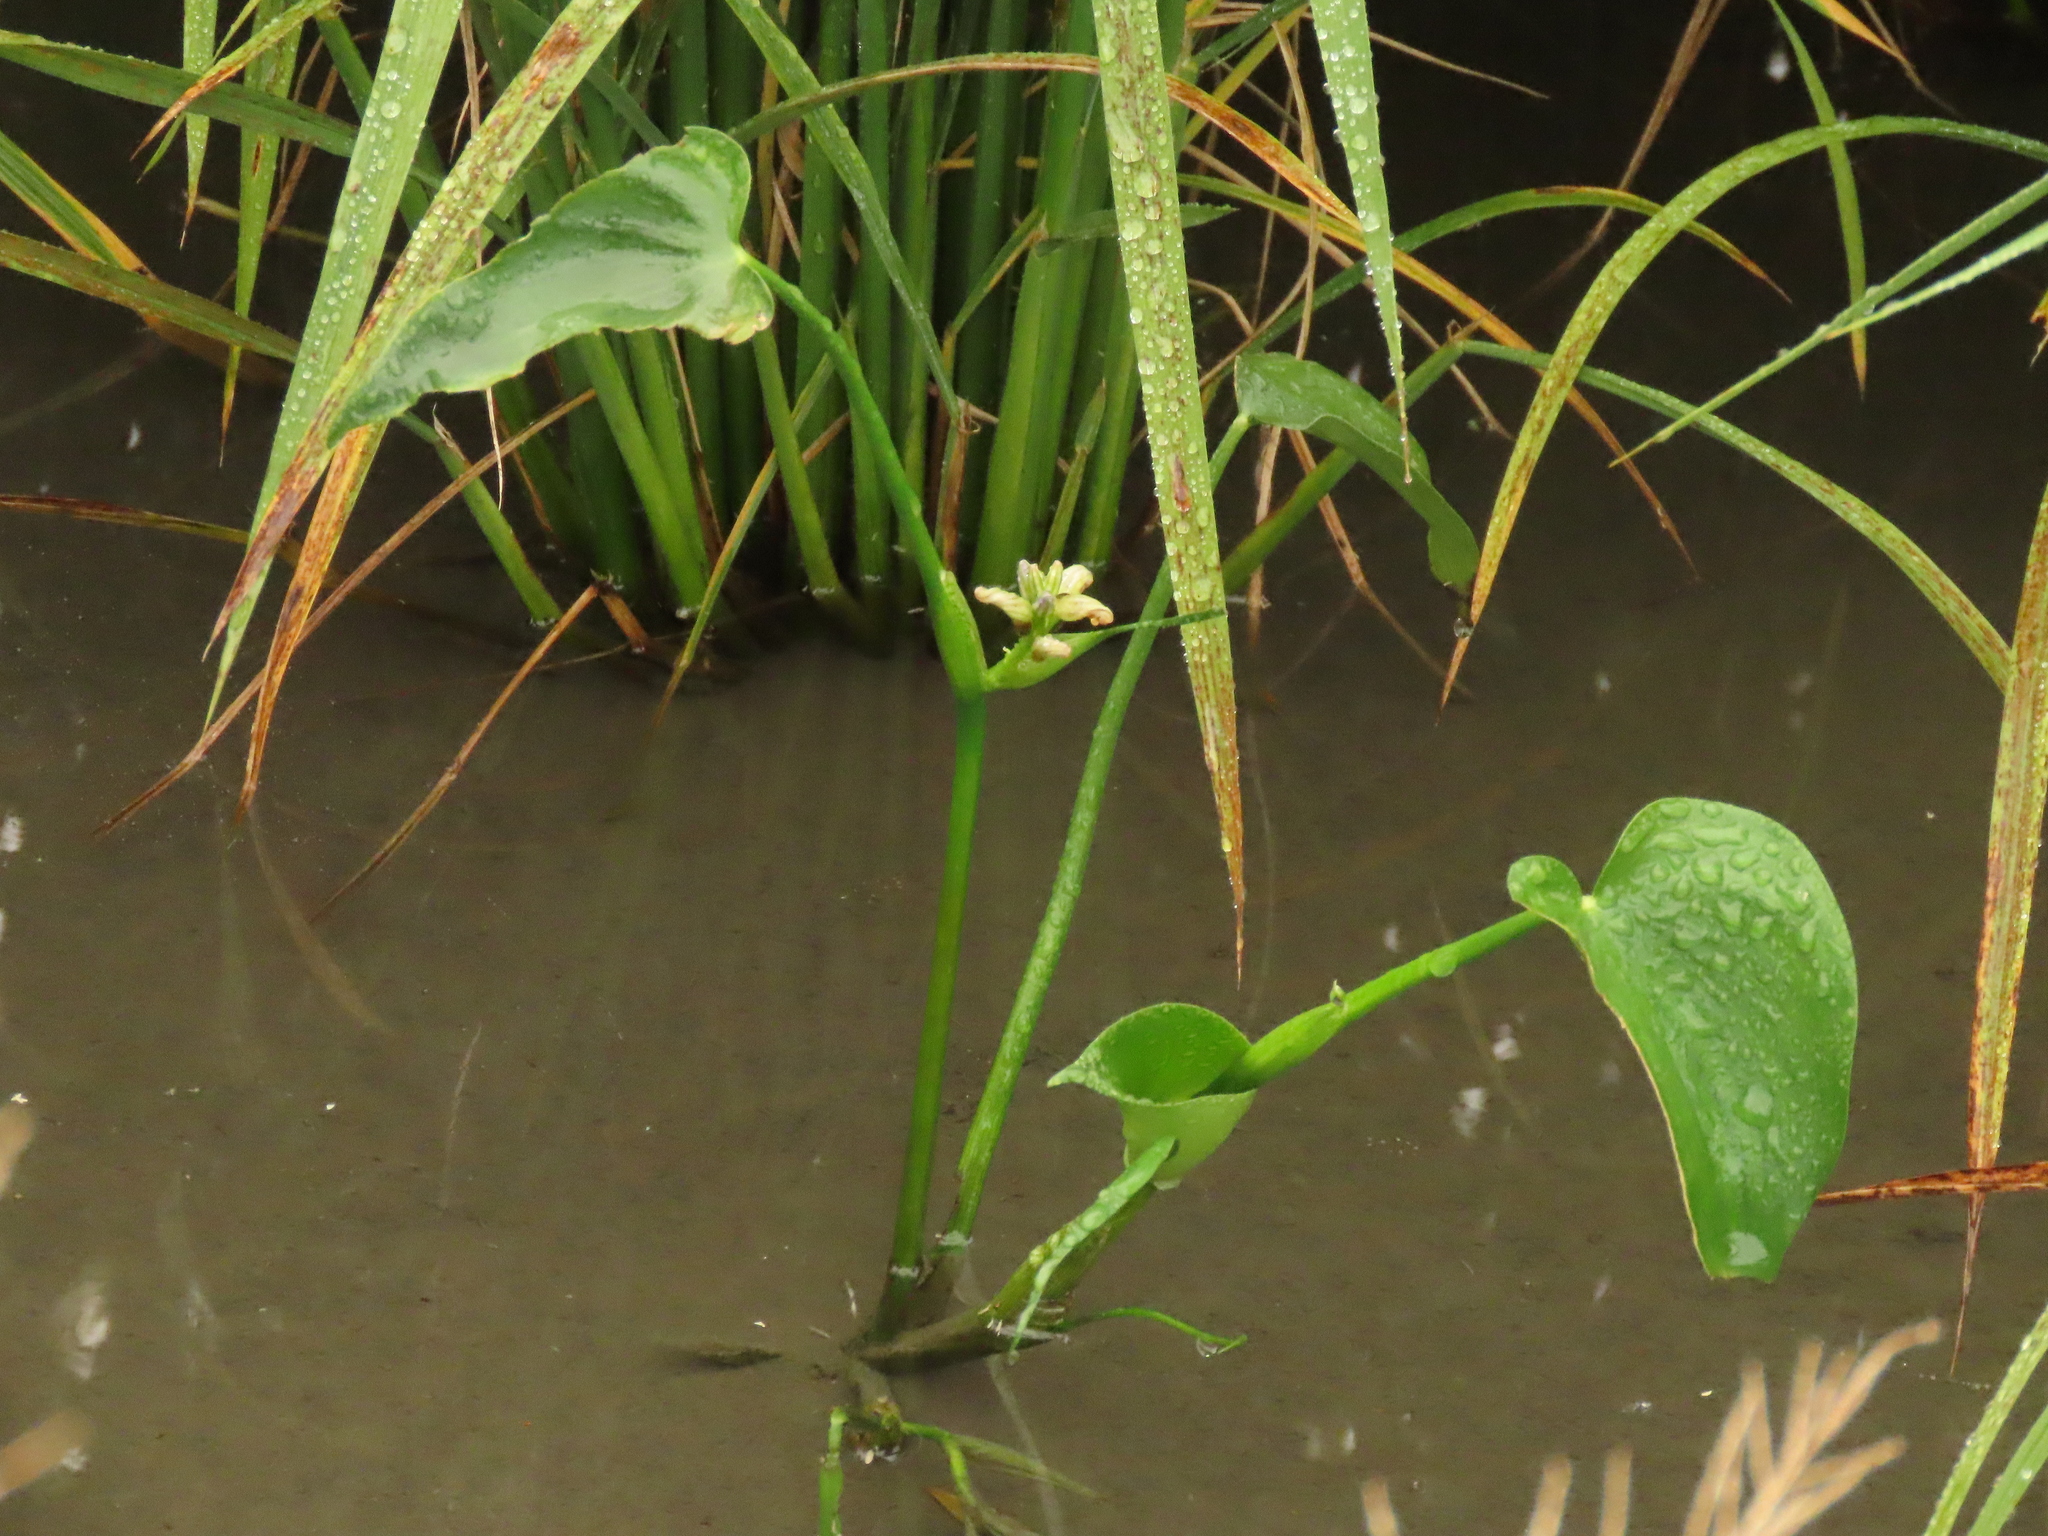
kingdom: Plantae
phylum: Tracheophyta
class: Liliopsida
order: Commelinales
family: Pontederiaceae
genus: Pontederia
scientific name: Pontederia vaginalis
